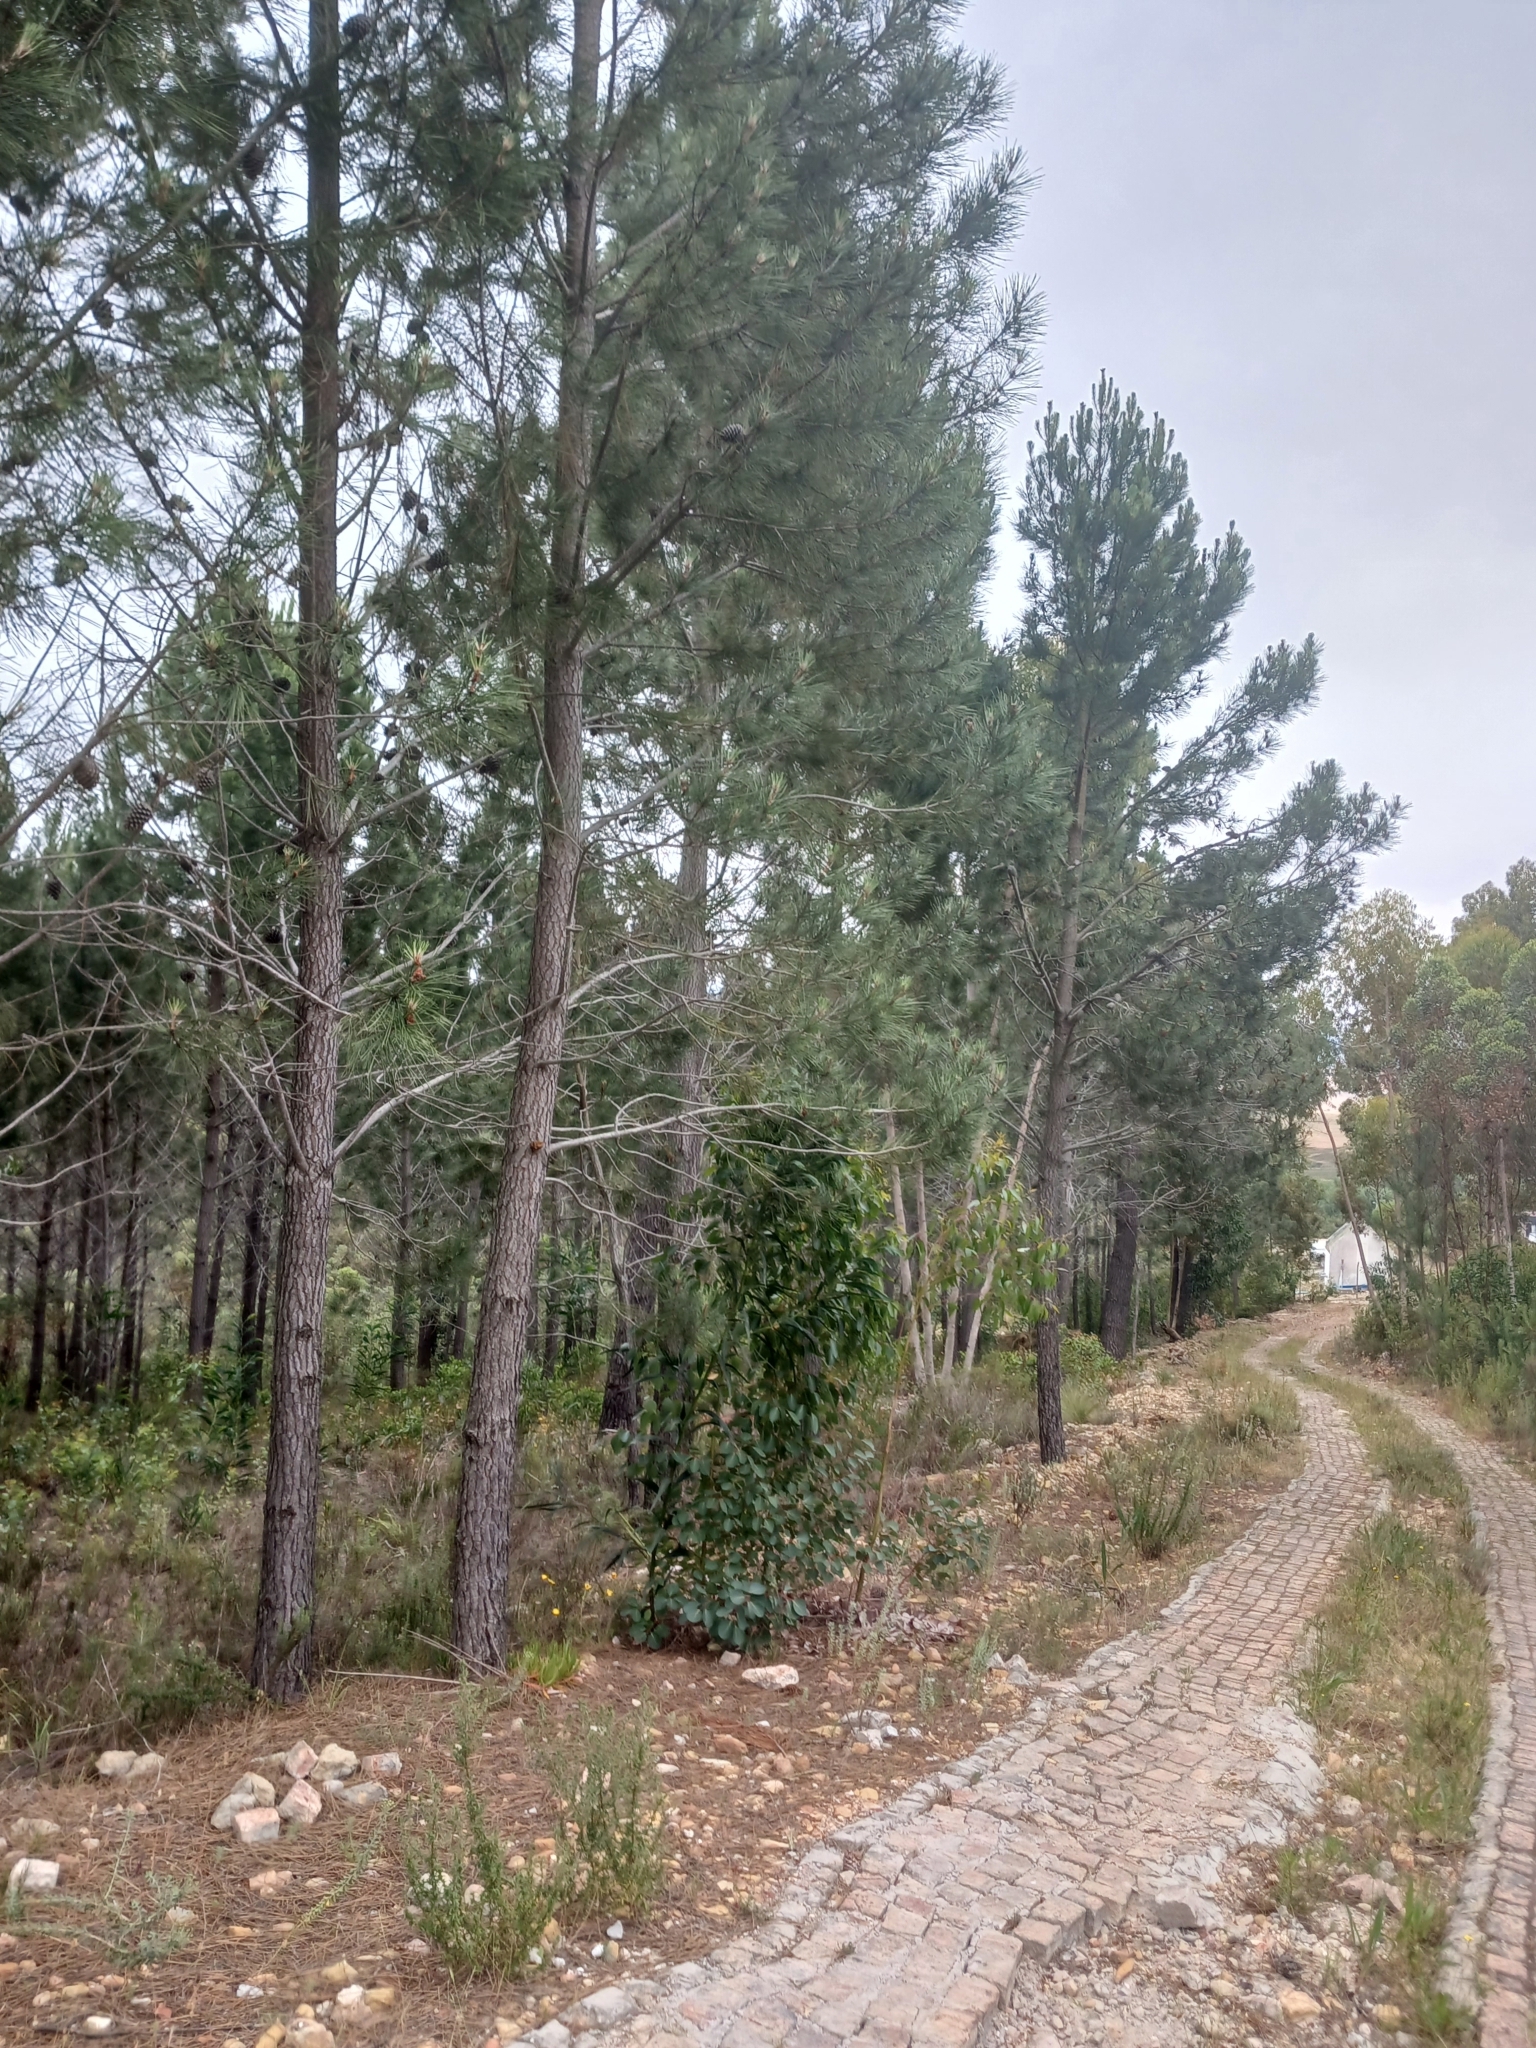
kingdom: Animalia
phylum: Chordata
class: Aves
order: Passeriformes
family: Fringillidae
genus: Serinus
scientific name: Serinus canicollis
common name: Cape canary
